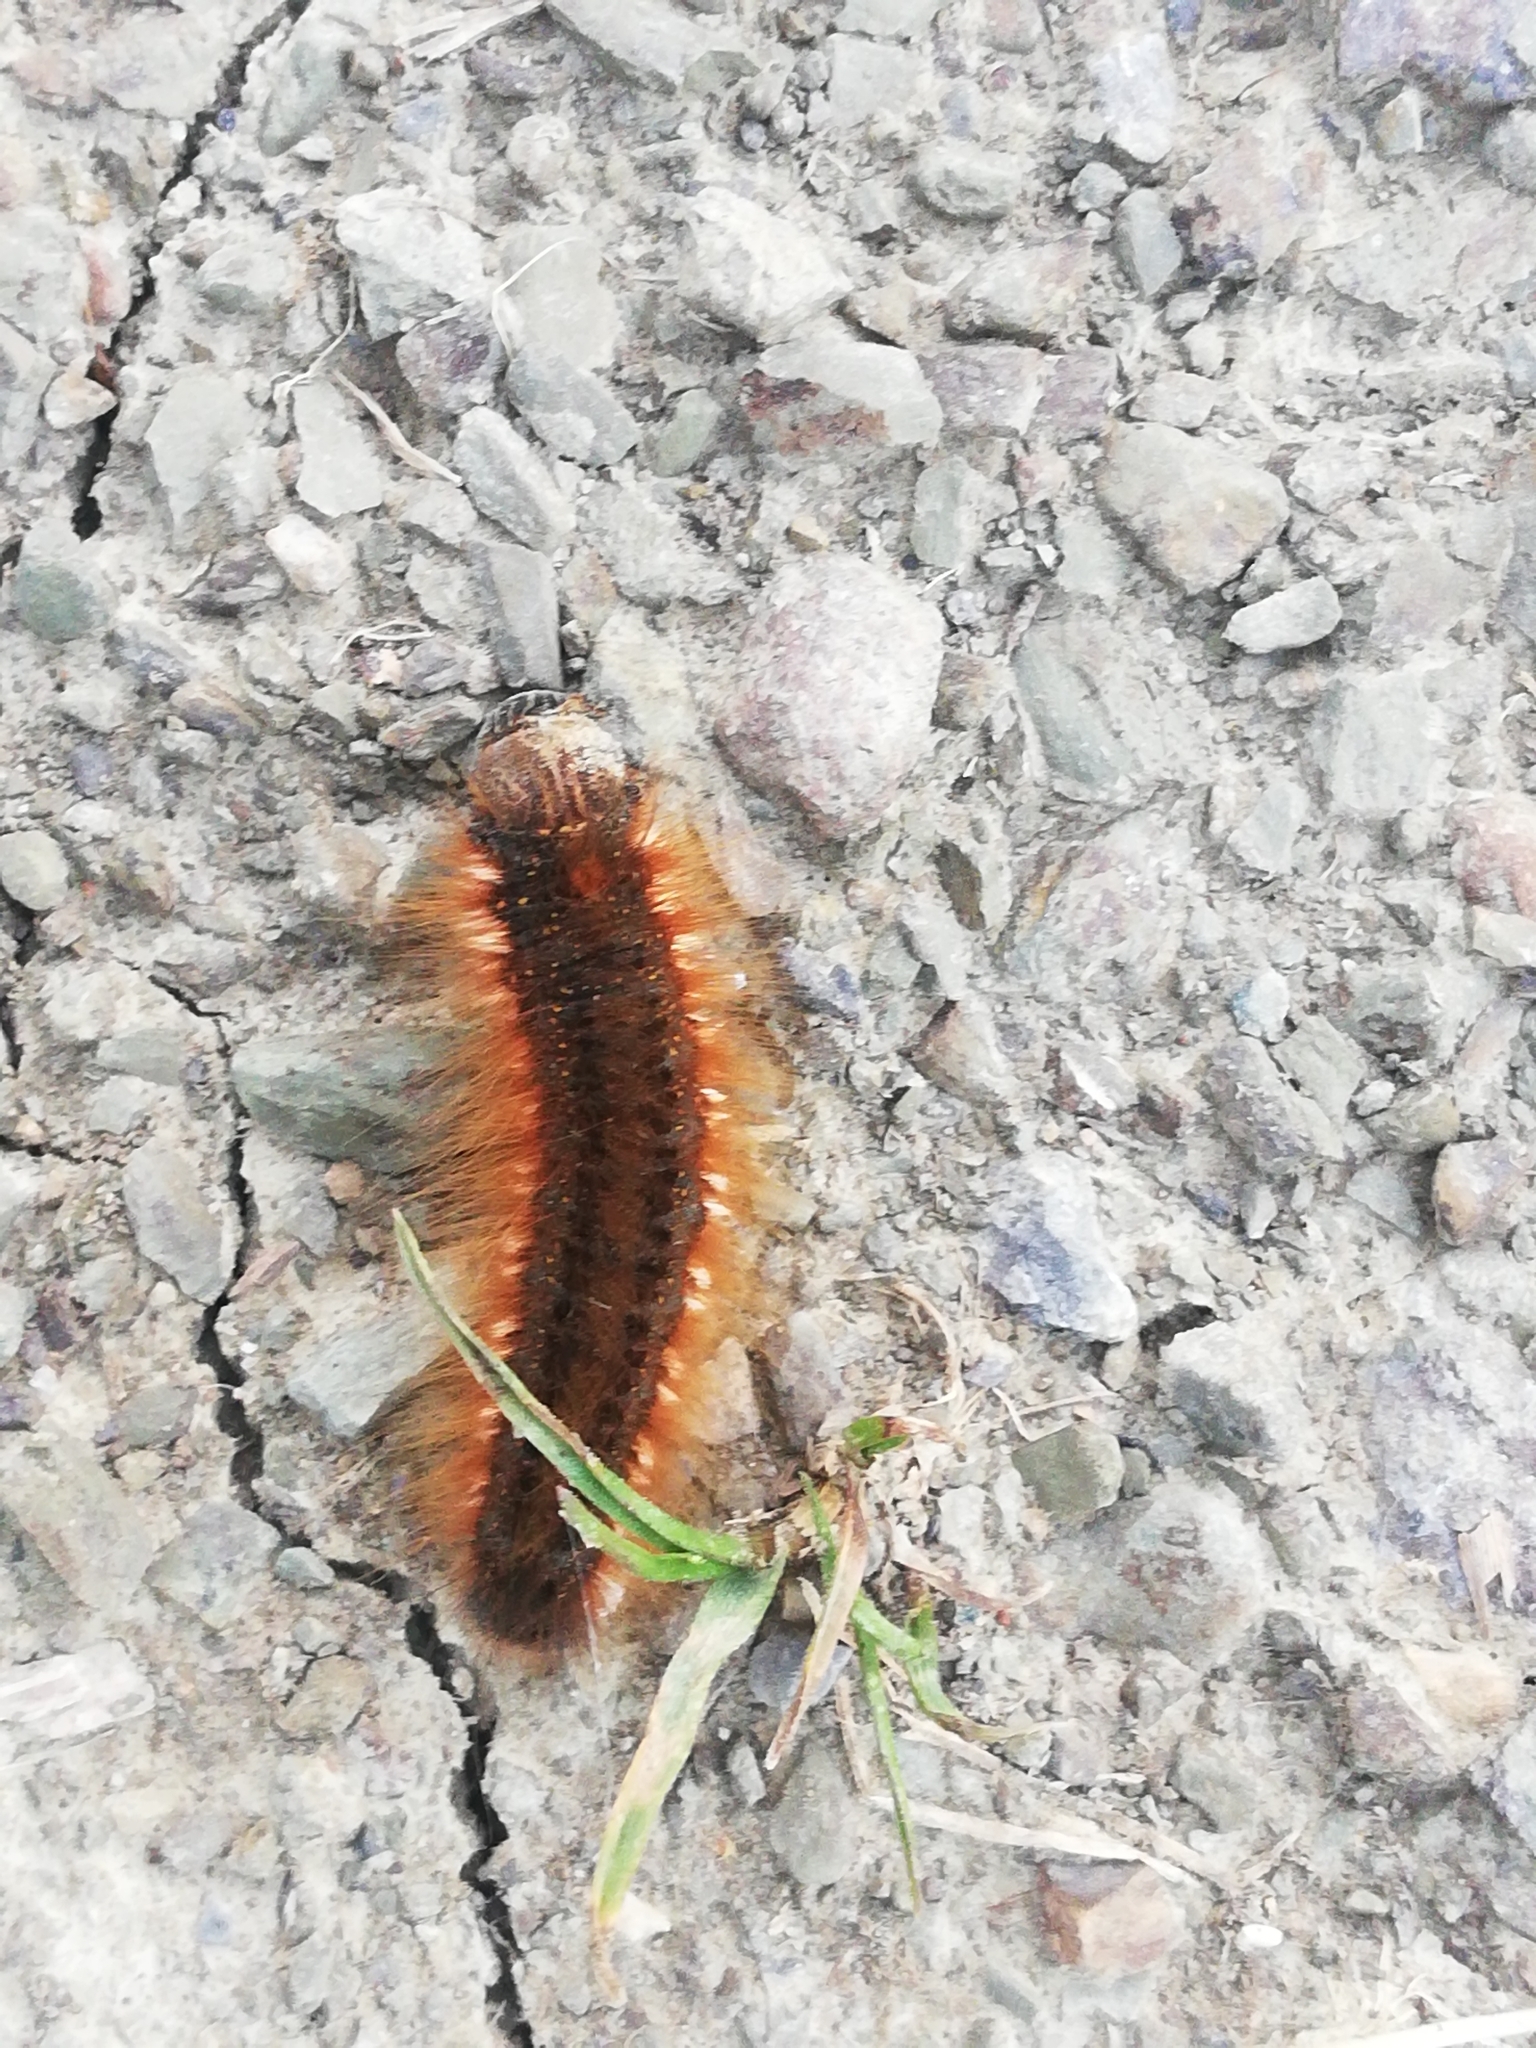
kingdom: Animalia
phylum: Arthropoda
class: Insecta
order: Lepidoptera
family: Lasiocampidae
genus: Euthrix
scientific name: Euthrix potatoria
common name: Drinker
